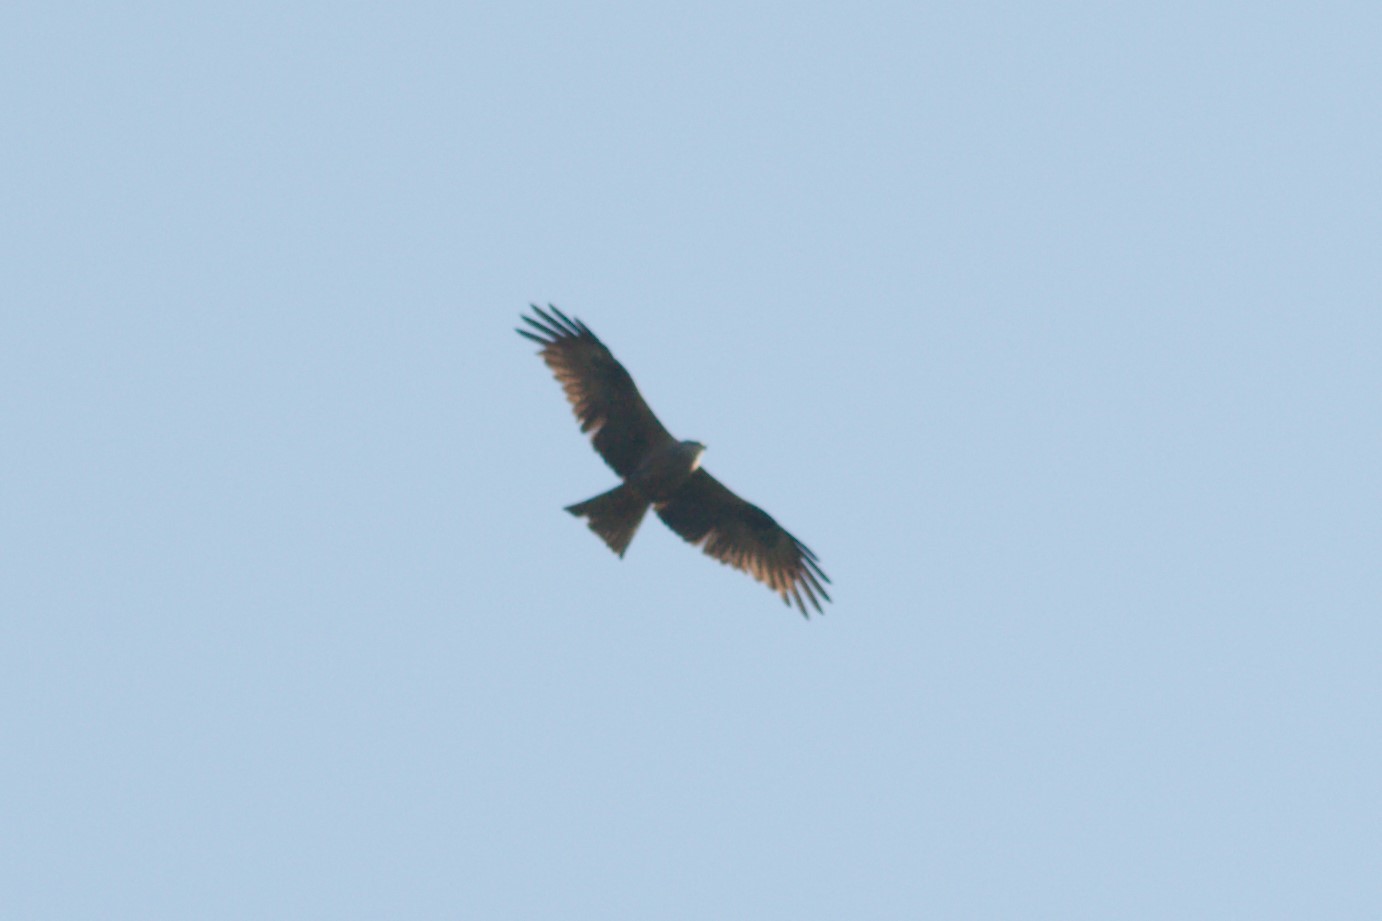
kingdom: Animalia
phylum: Chordata
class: Aves
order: Accipitriformes
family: Accipitridae
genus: Milvus
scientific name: Milvus migrans
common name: Black kite
